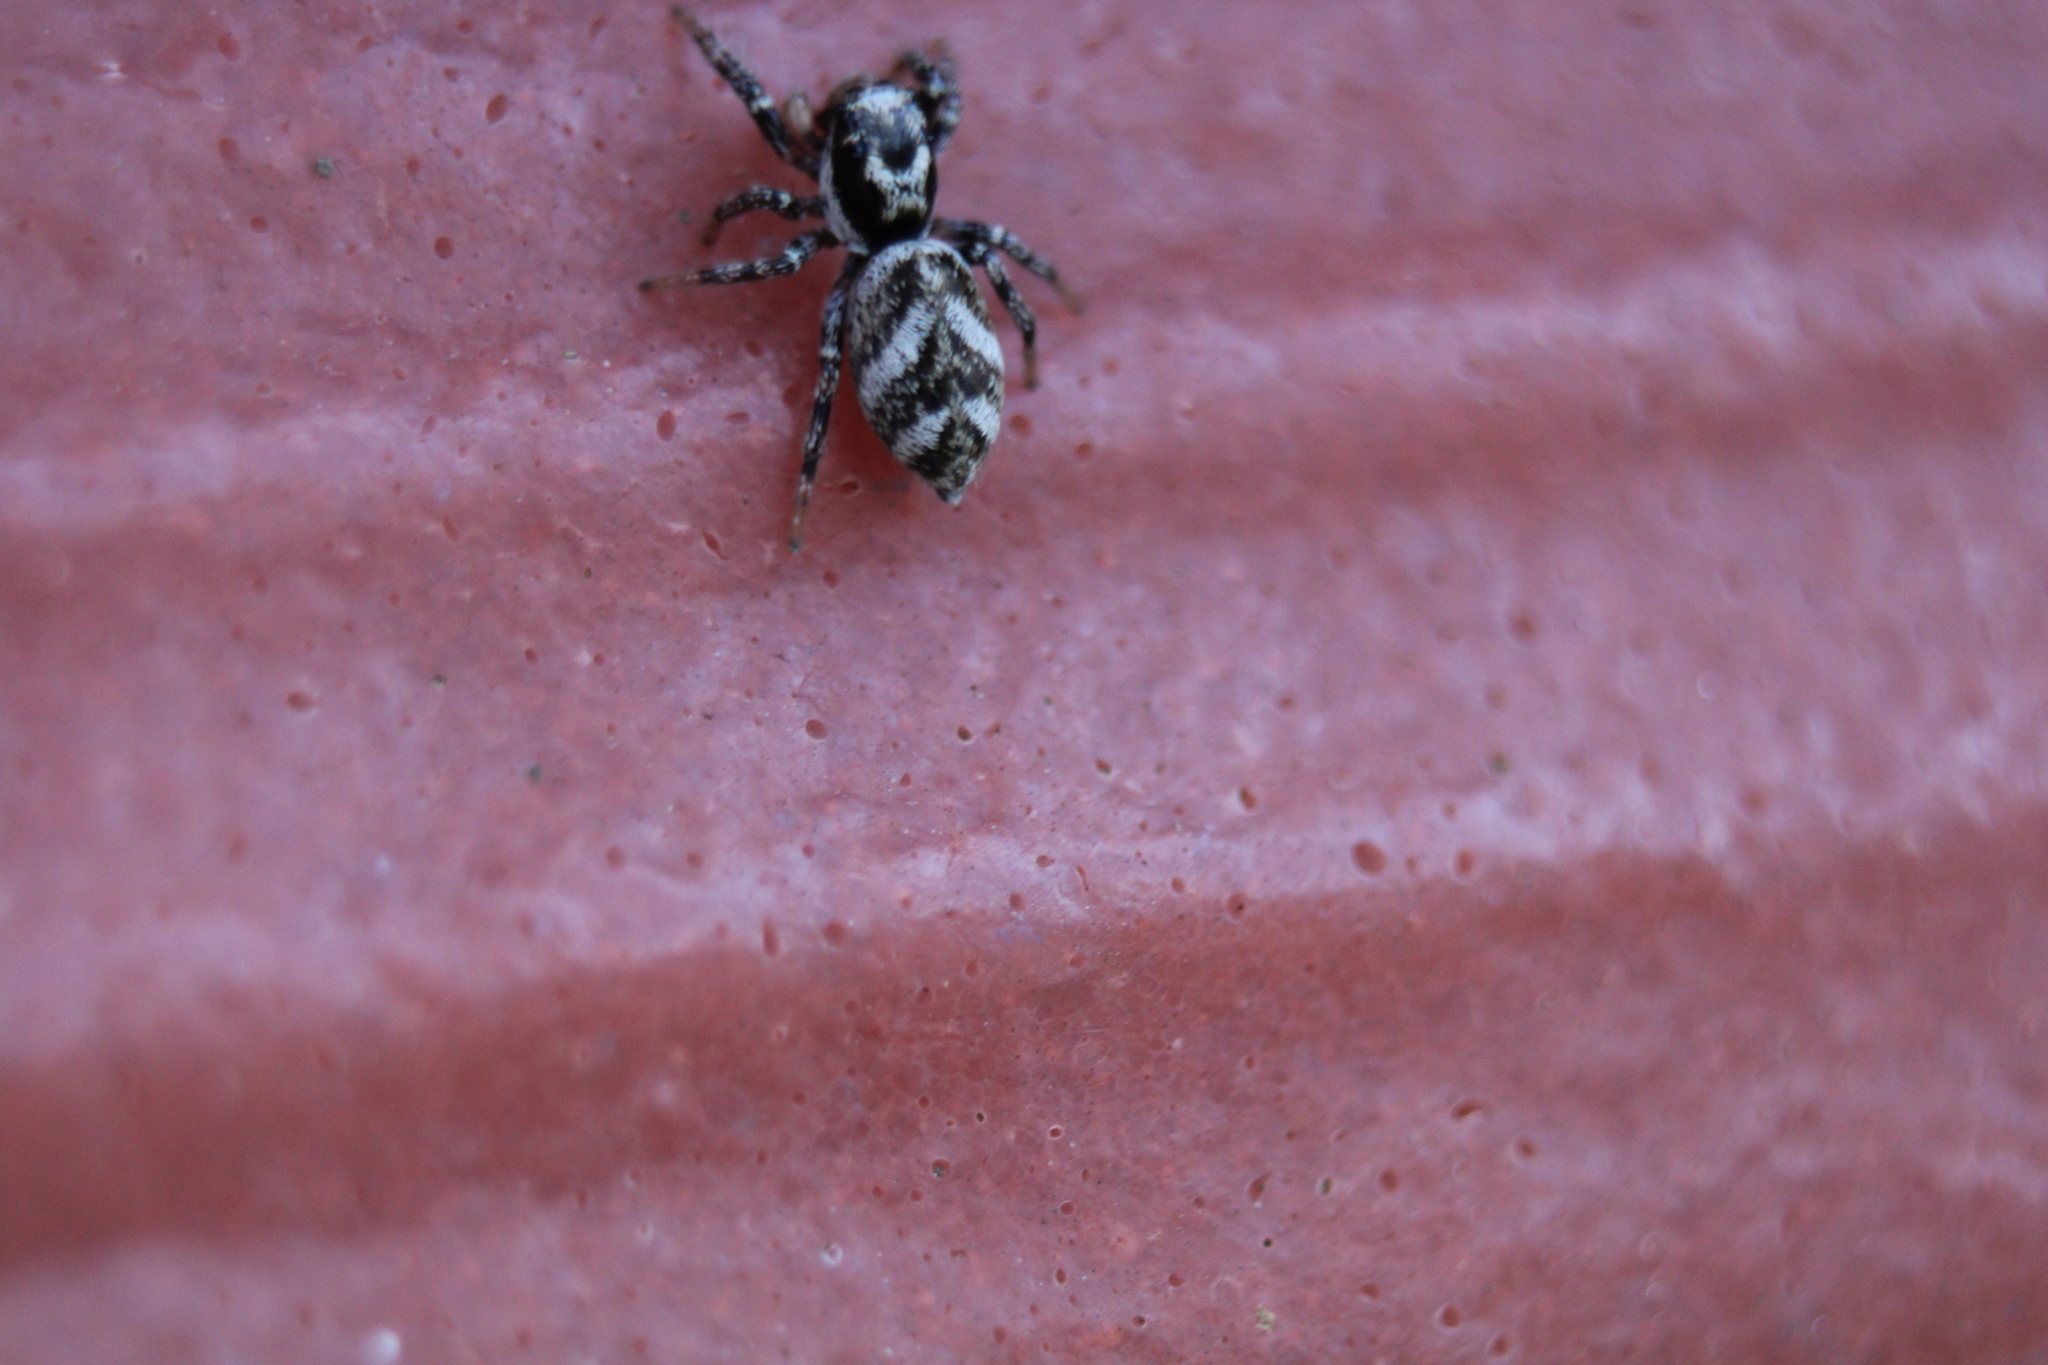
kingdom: Animalia
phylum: Arthropoda
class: Arachnida
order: Araneae
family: Salticidae
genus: Salticus
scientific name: Salticus scenicus
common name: Zebra jumper
